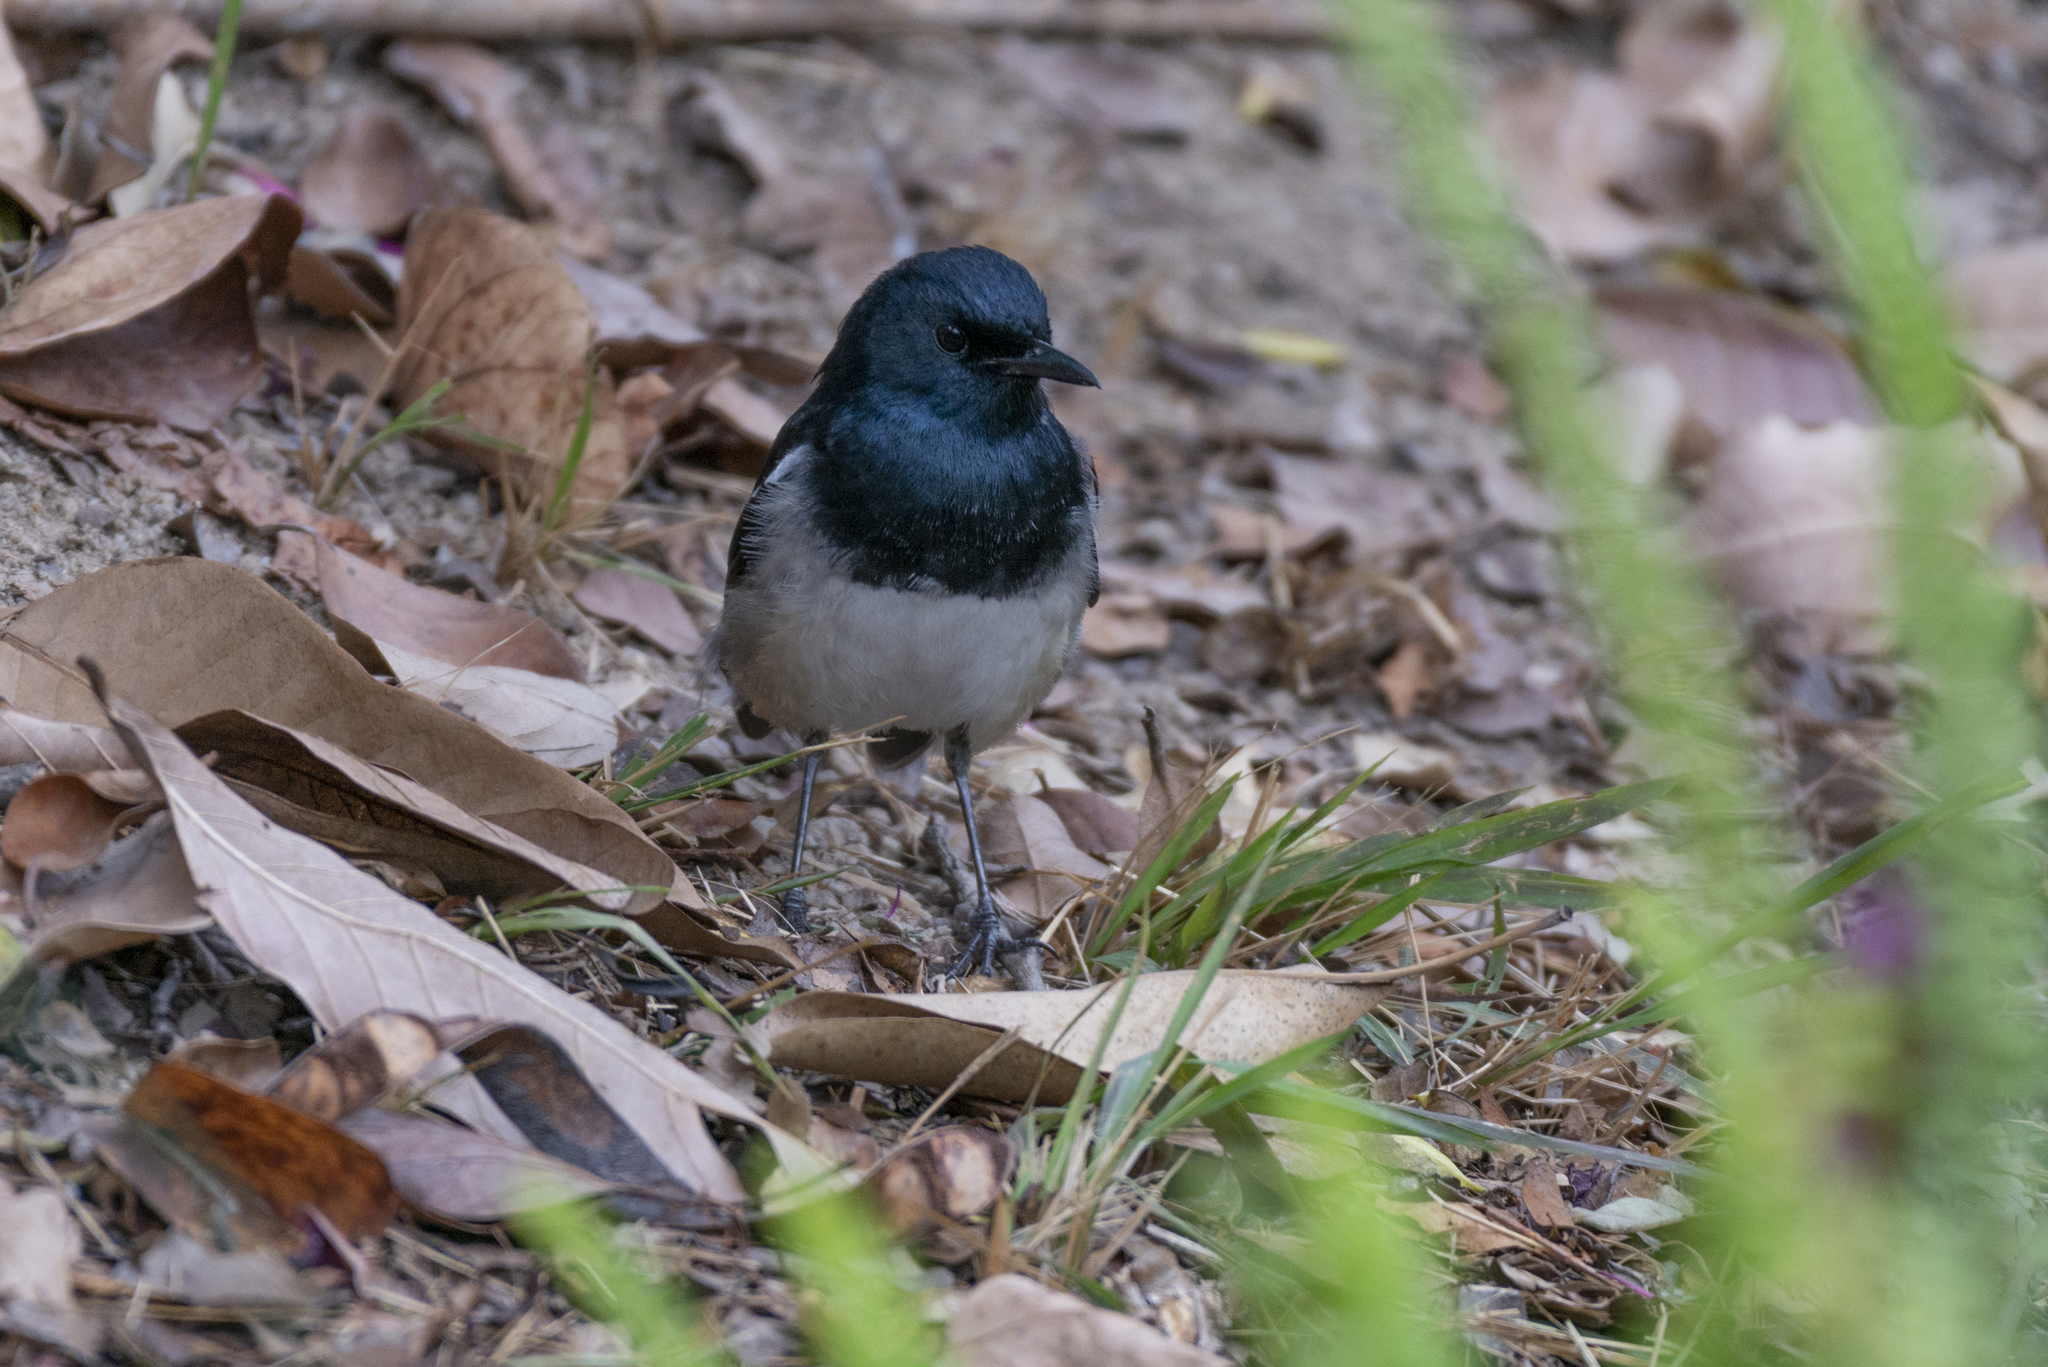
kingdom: Animalia
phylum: Chordata
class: Aves
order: Passeriformes
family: Muscicapidae
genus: Copsychus
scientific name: Copsychus saularis
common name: Oriental magpie-robin
